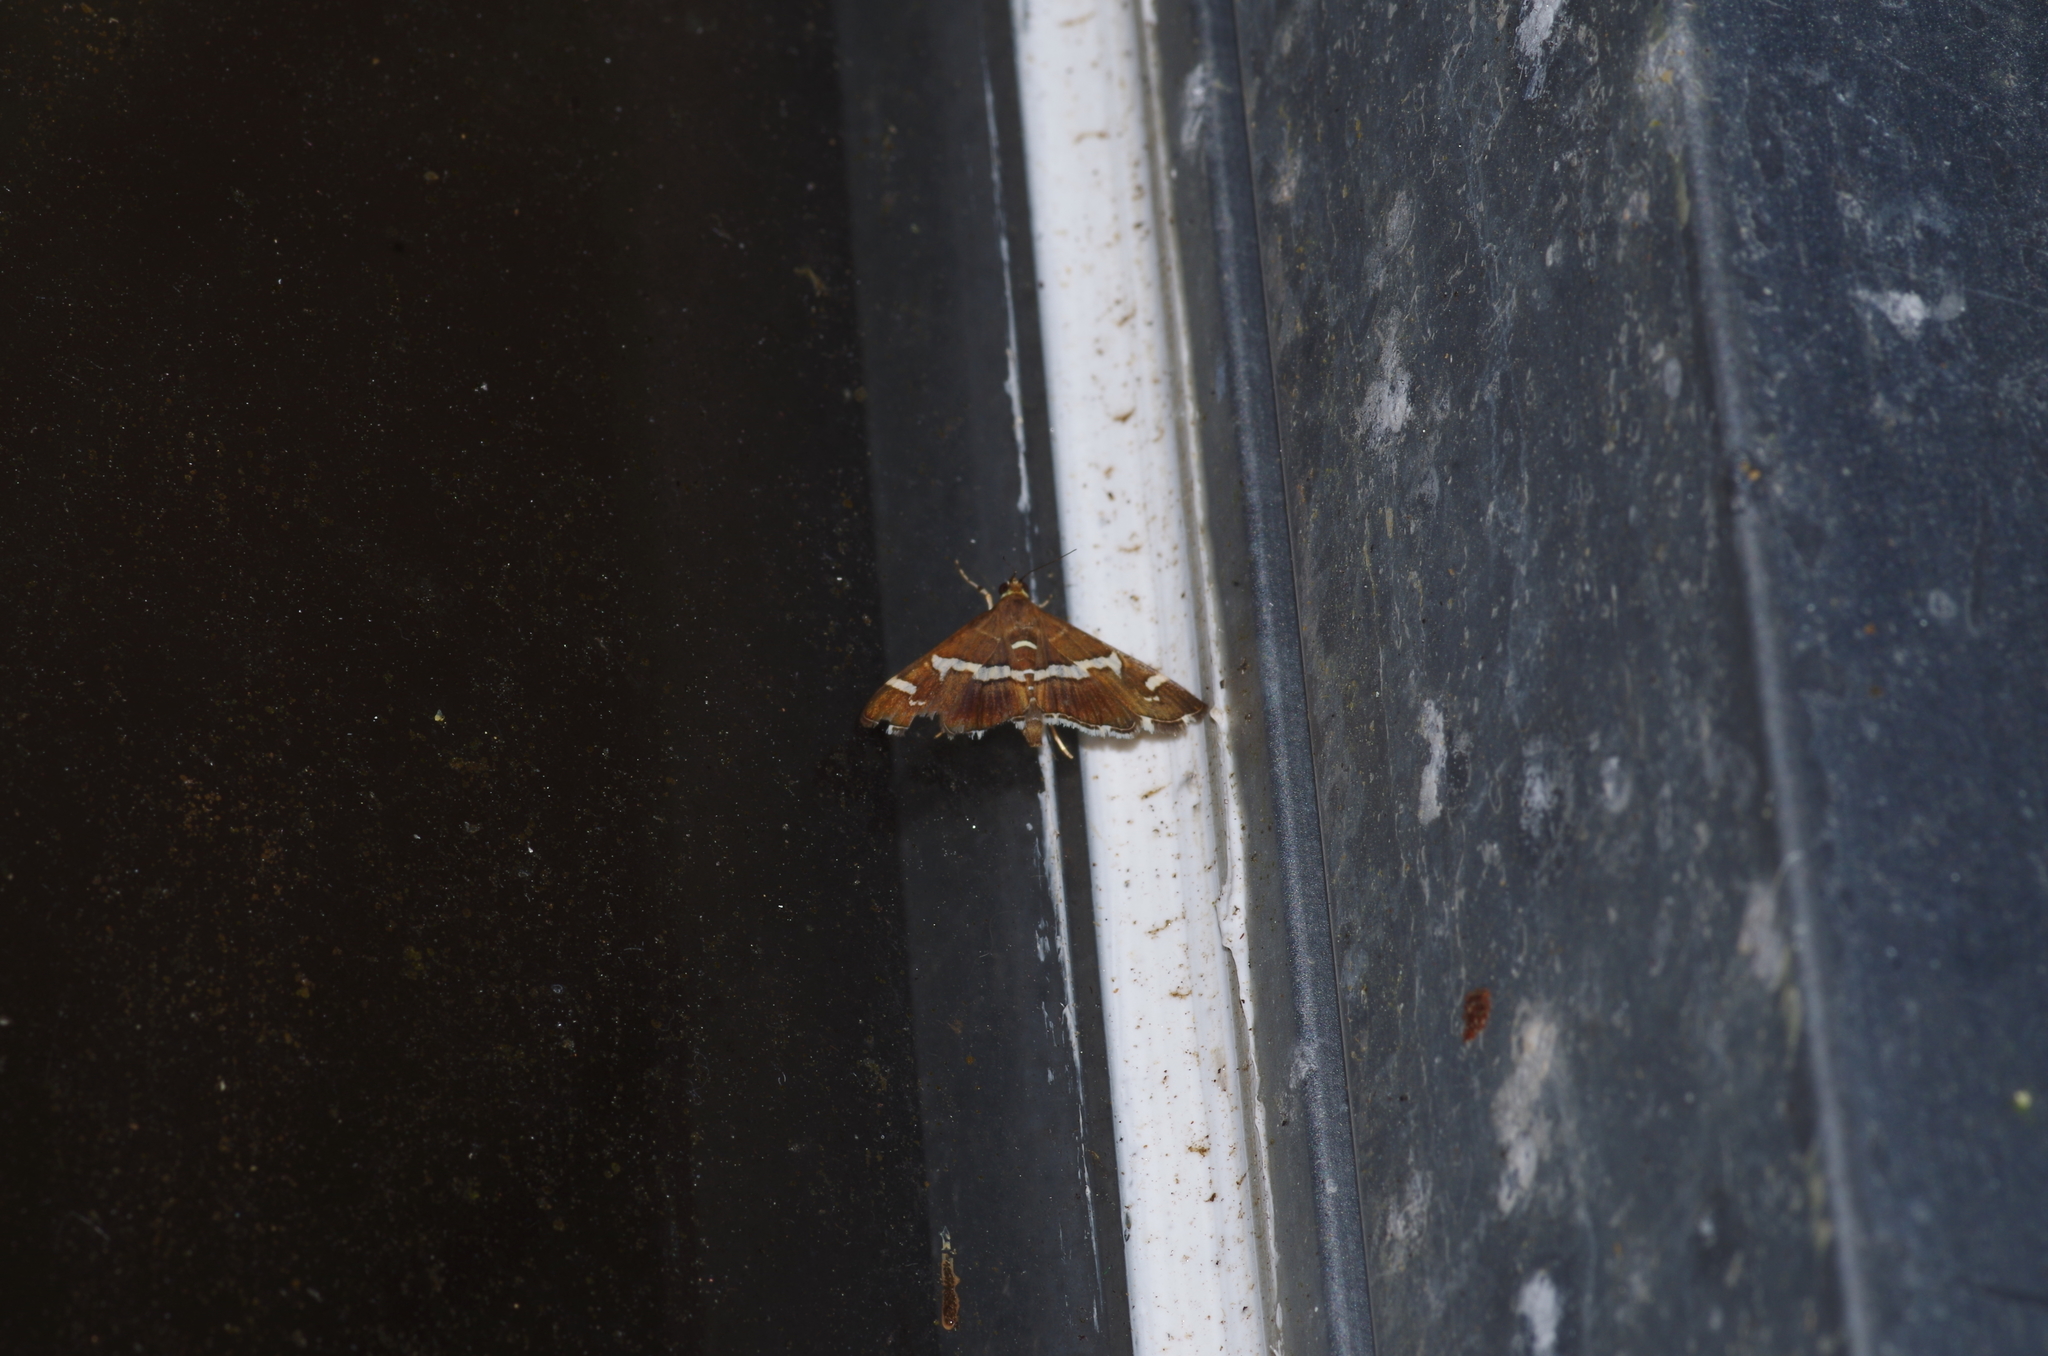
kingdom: Animalia
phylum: Arthropoda
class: Insecta
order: Lepidoptera
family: Crambidae
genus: Spoladea
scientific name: Spoladea recurvalis
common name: Beet webworm moth
